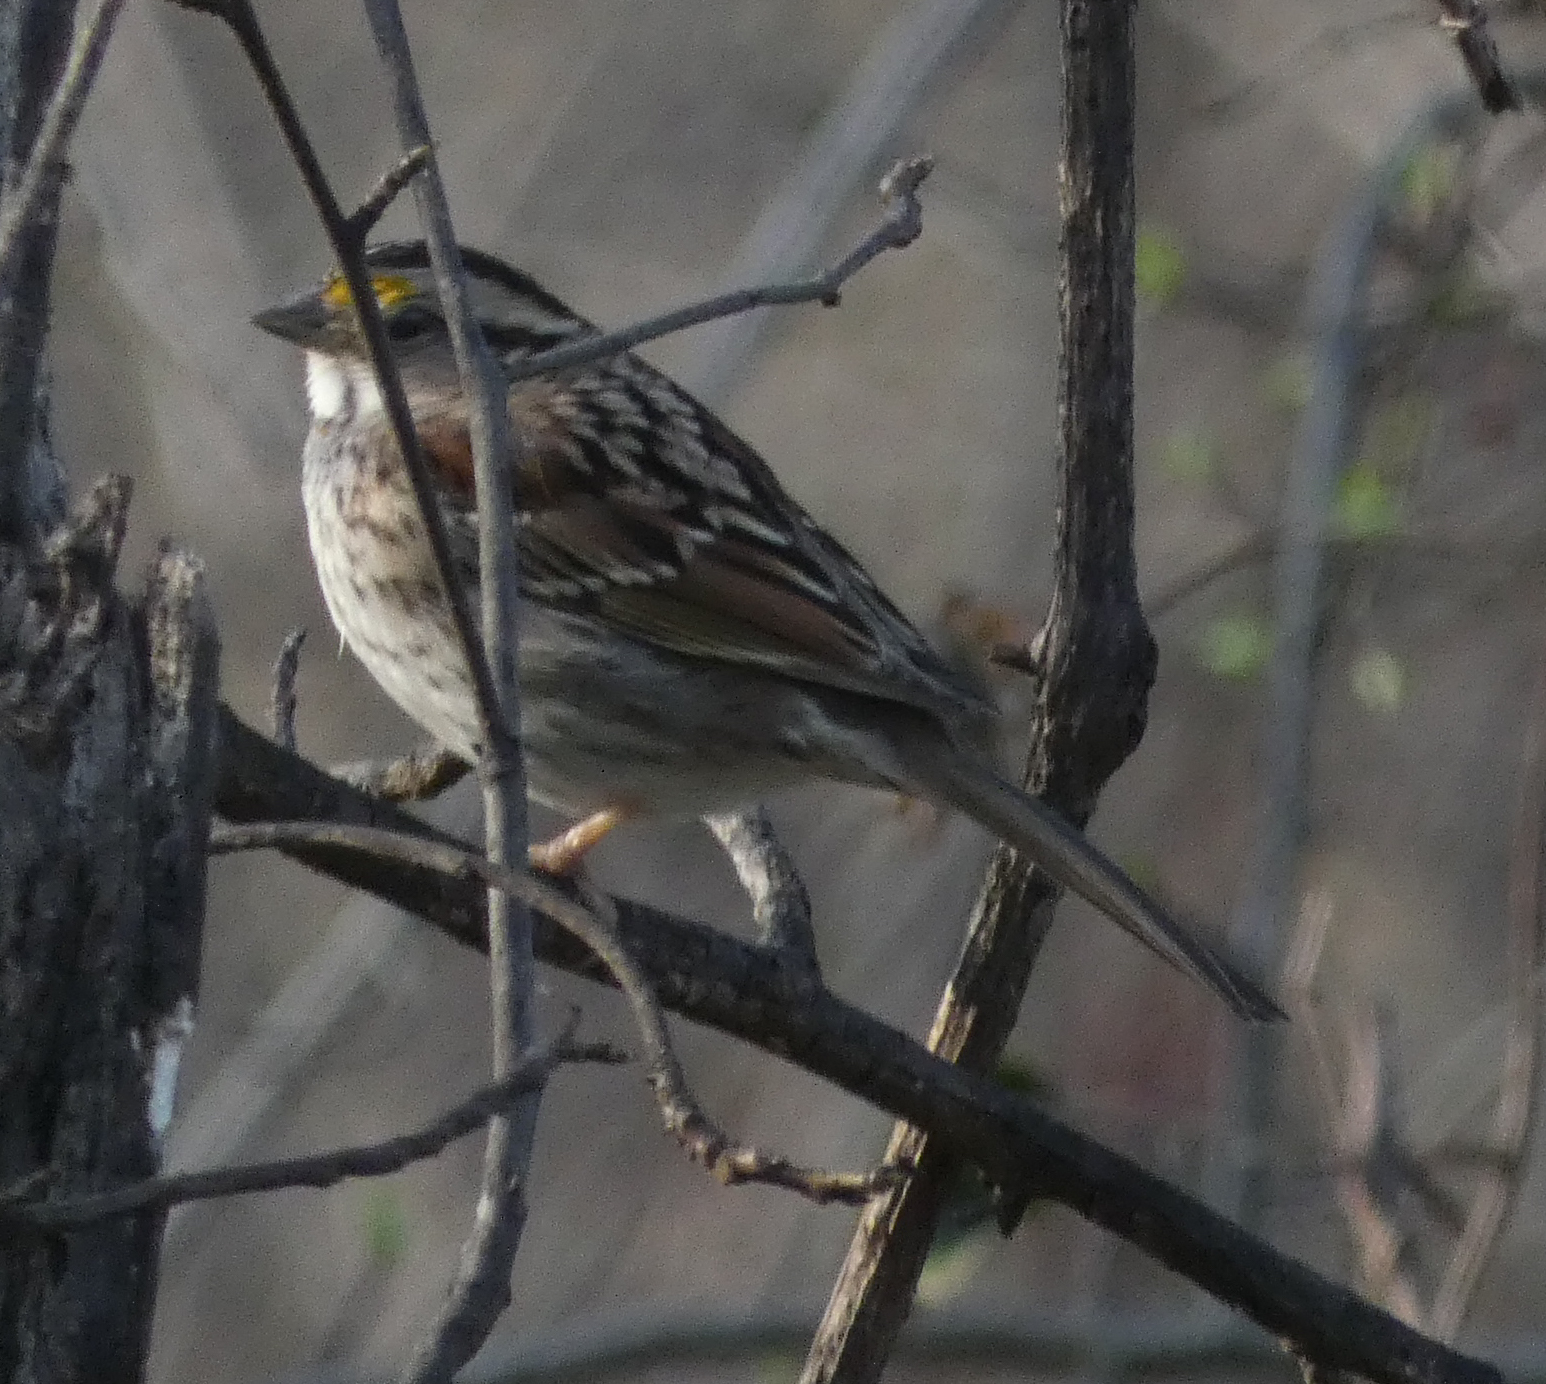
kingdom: Animalia
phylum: Chordata
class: Aves
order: Passeriformes
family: Passerellidae
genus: Zonotrichia
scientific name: Zonotrichia albicollis
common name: White-throated sparrow
